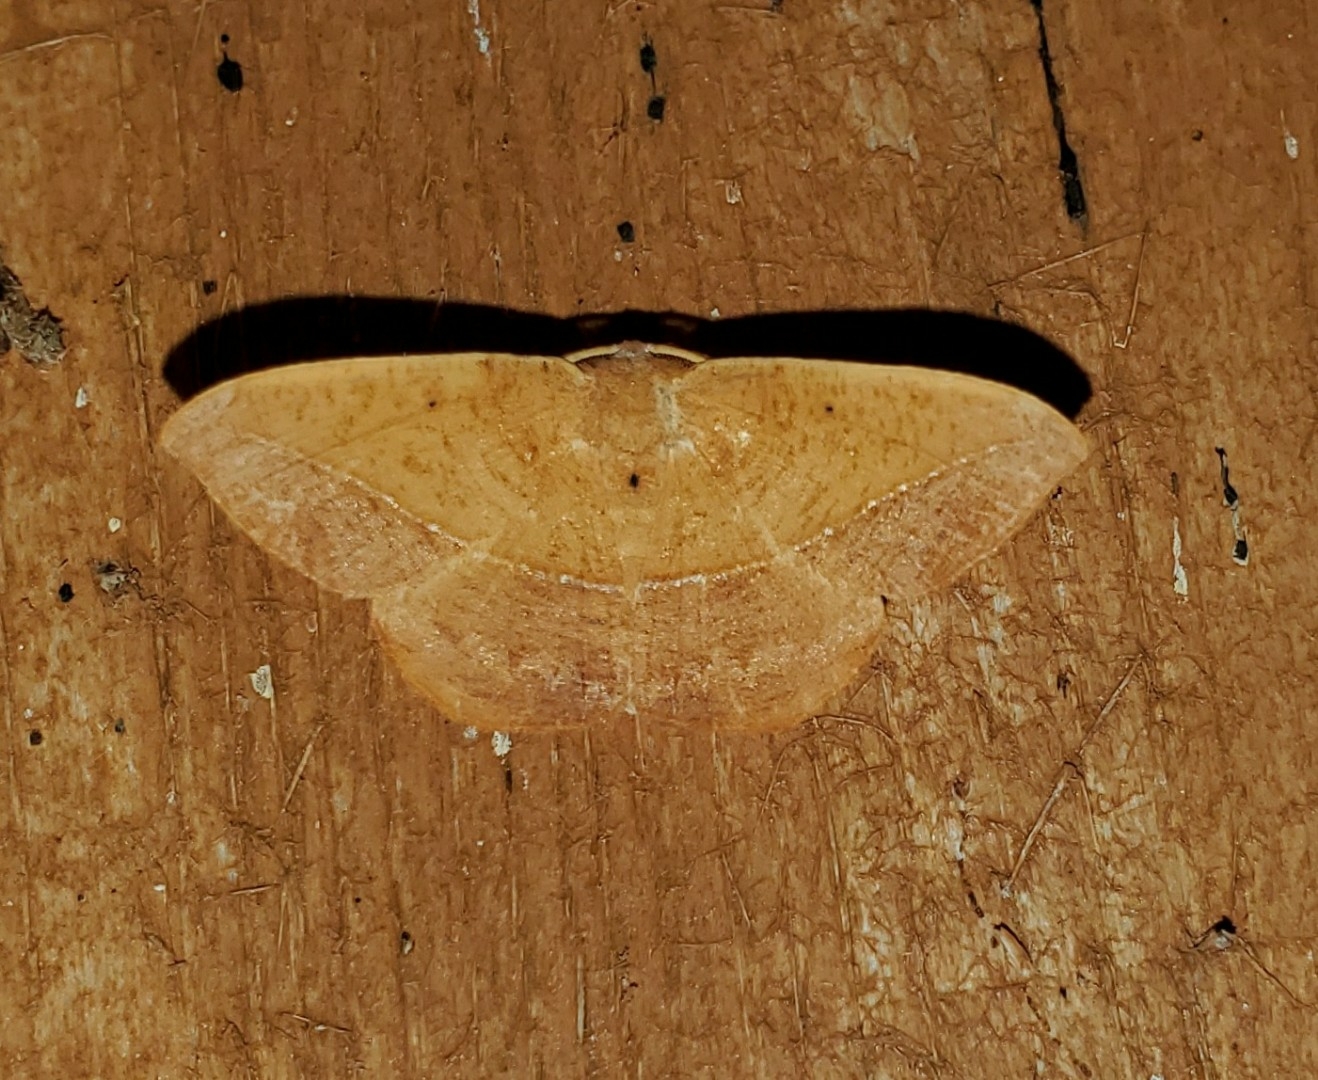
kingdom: Animalia
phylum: Arthropoda
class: Insecta
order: Lepidoptera
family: Geometridae
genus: Patalene
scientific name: Patalene olyzonaria
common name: Juniper geometer moth
